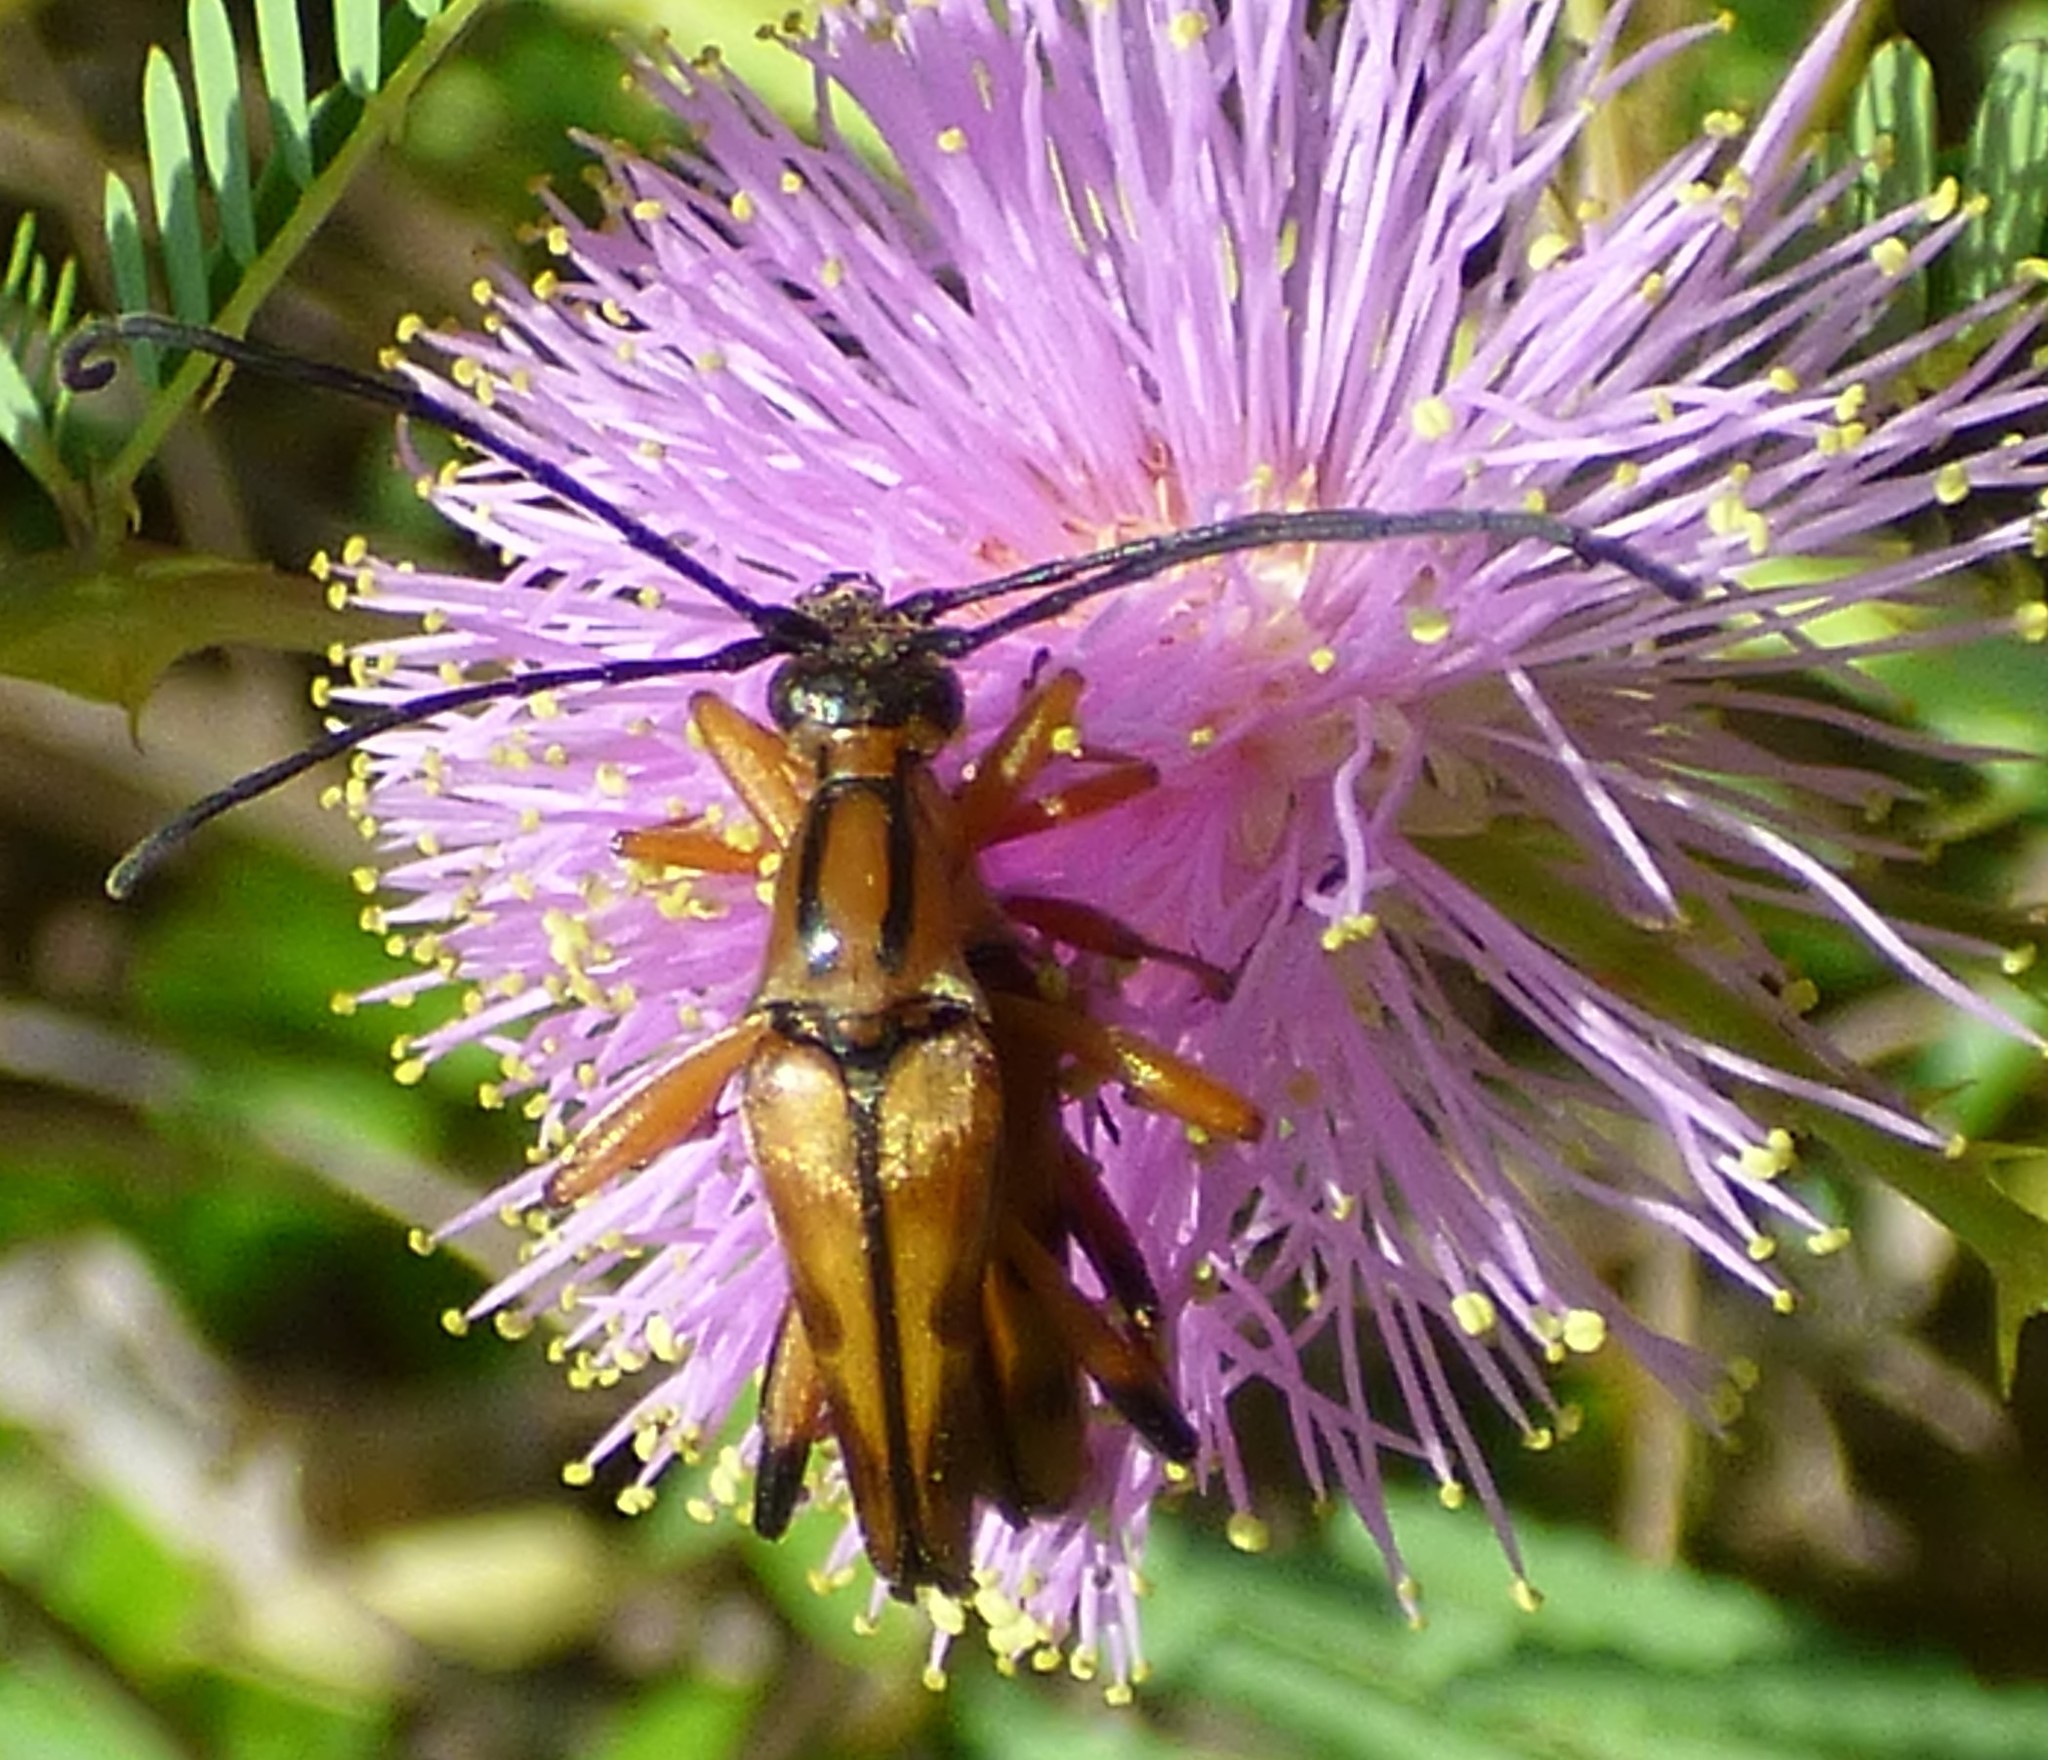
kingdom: Animalia
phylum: Arthropoda
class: Insecta
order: Coleoptera
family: Cerambycidae
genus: Strangalia
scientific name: Strangalia famelica
